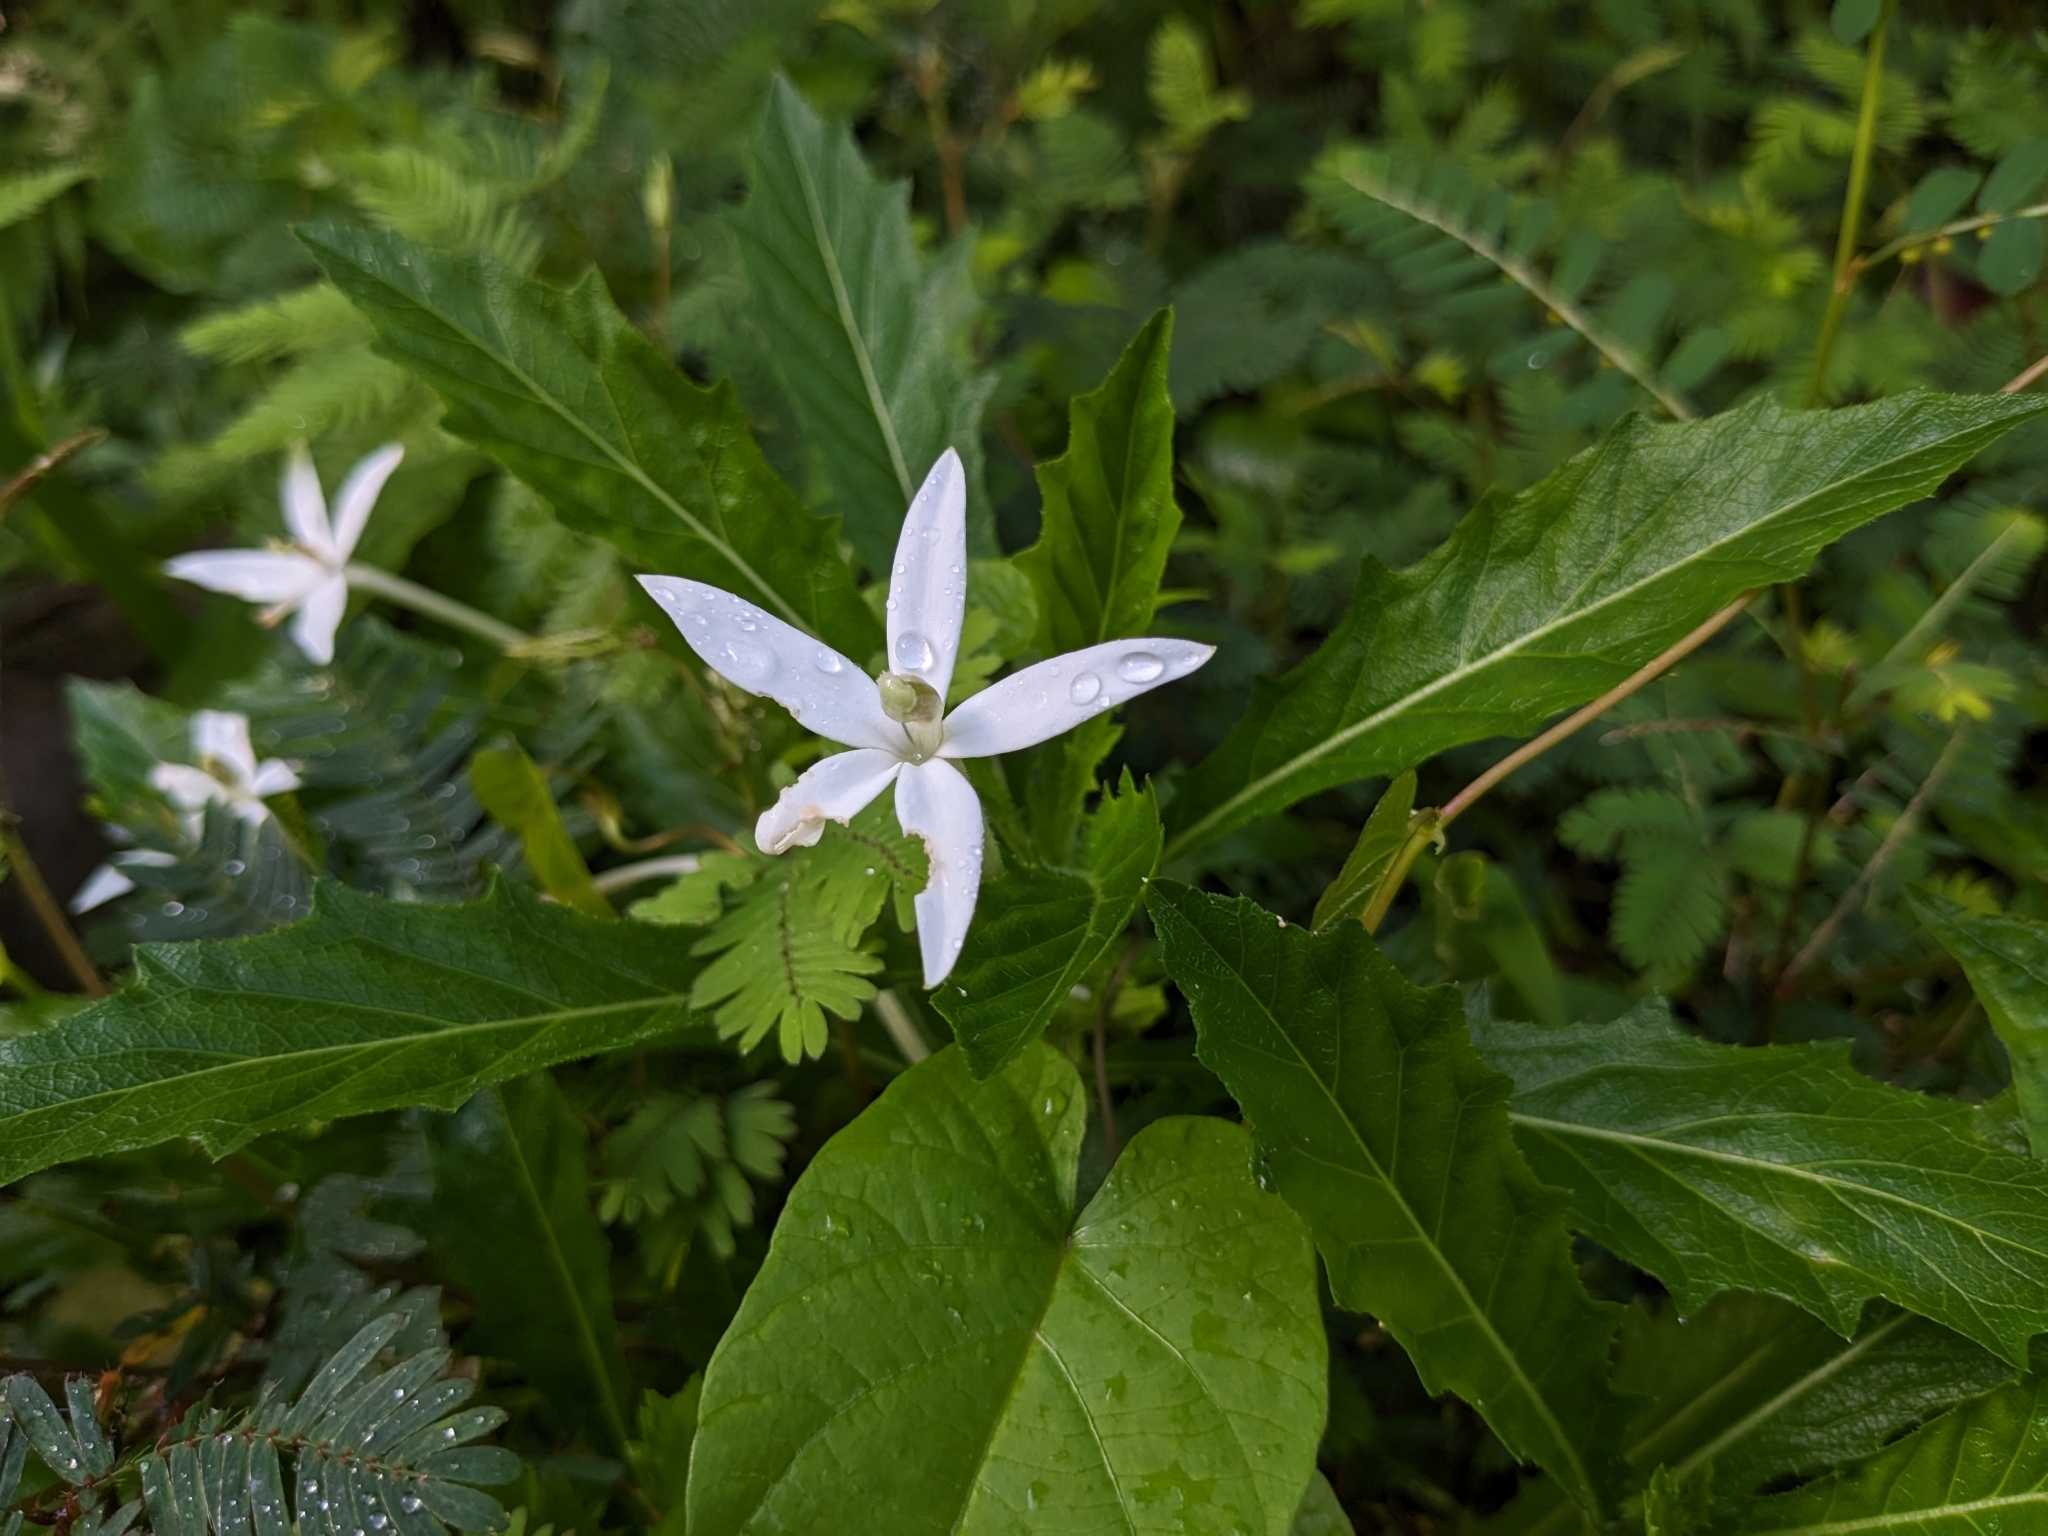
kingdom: Plantae
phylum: Tracheophyta
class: Magnoliopsida
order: Asterales
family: Campanulaceae
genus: Hippobroma
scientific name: Hippobroma longiflora
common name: Madamfate
